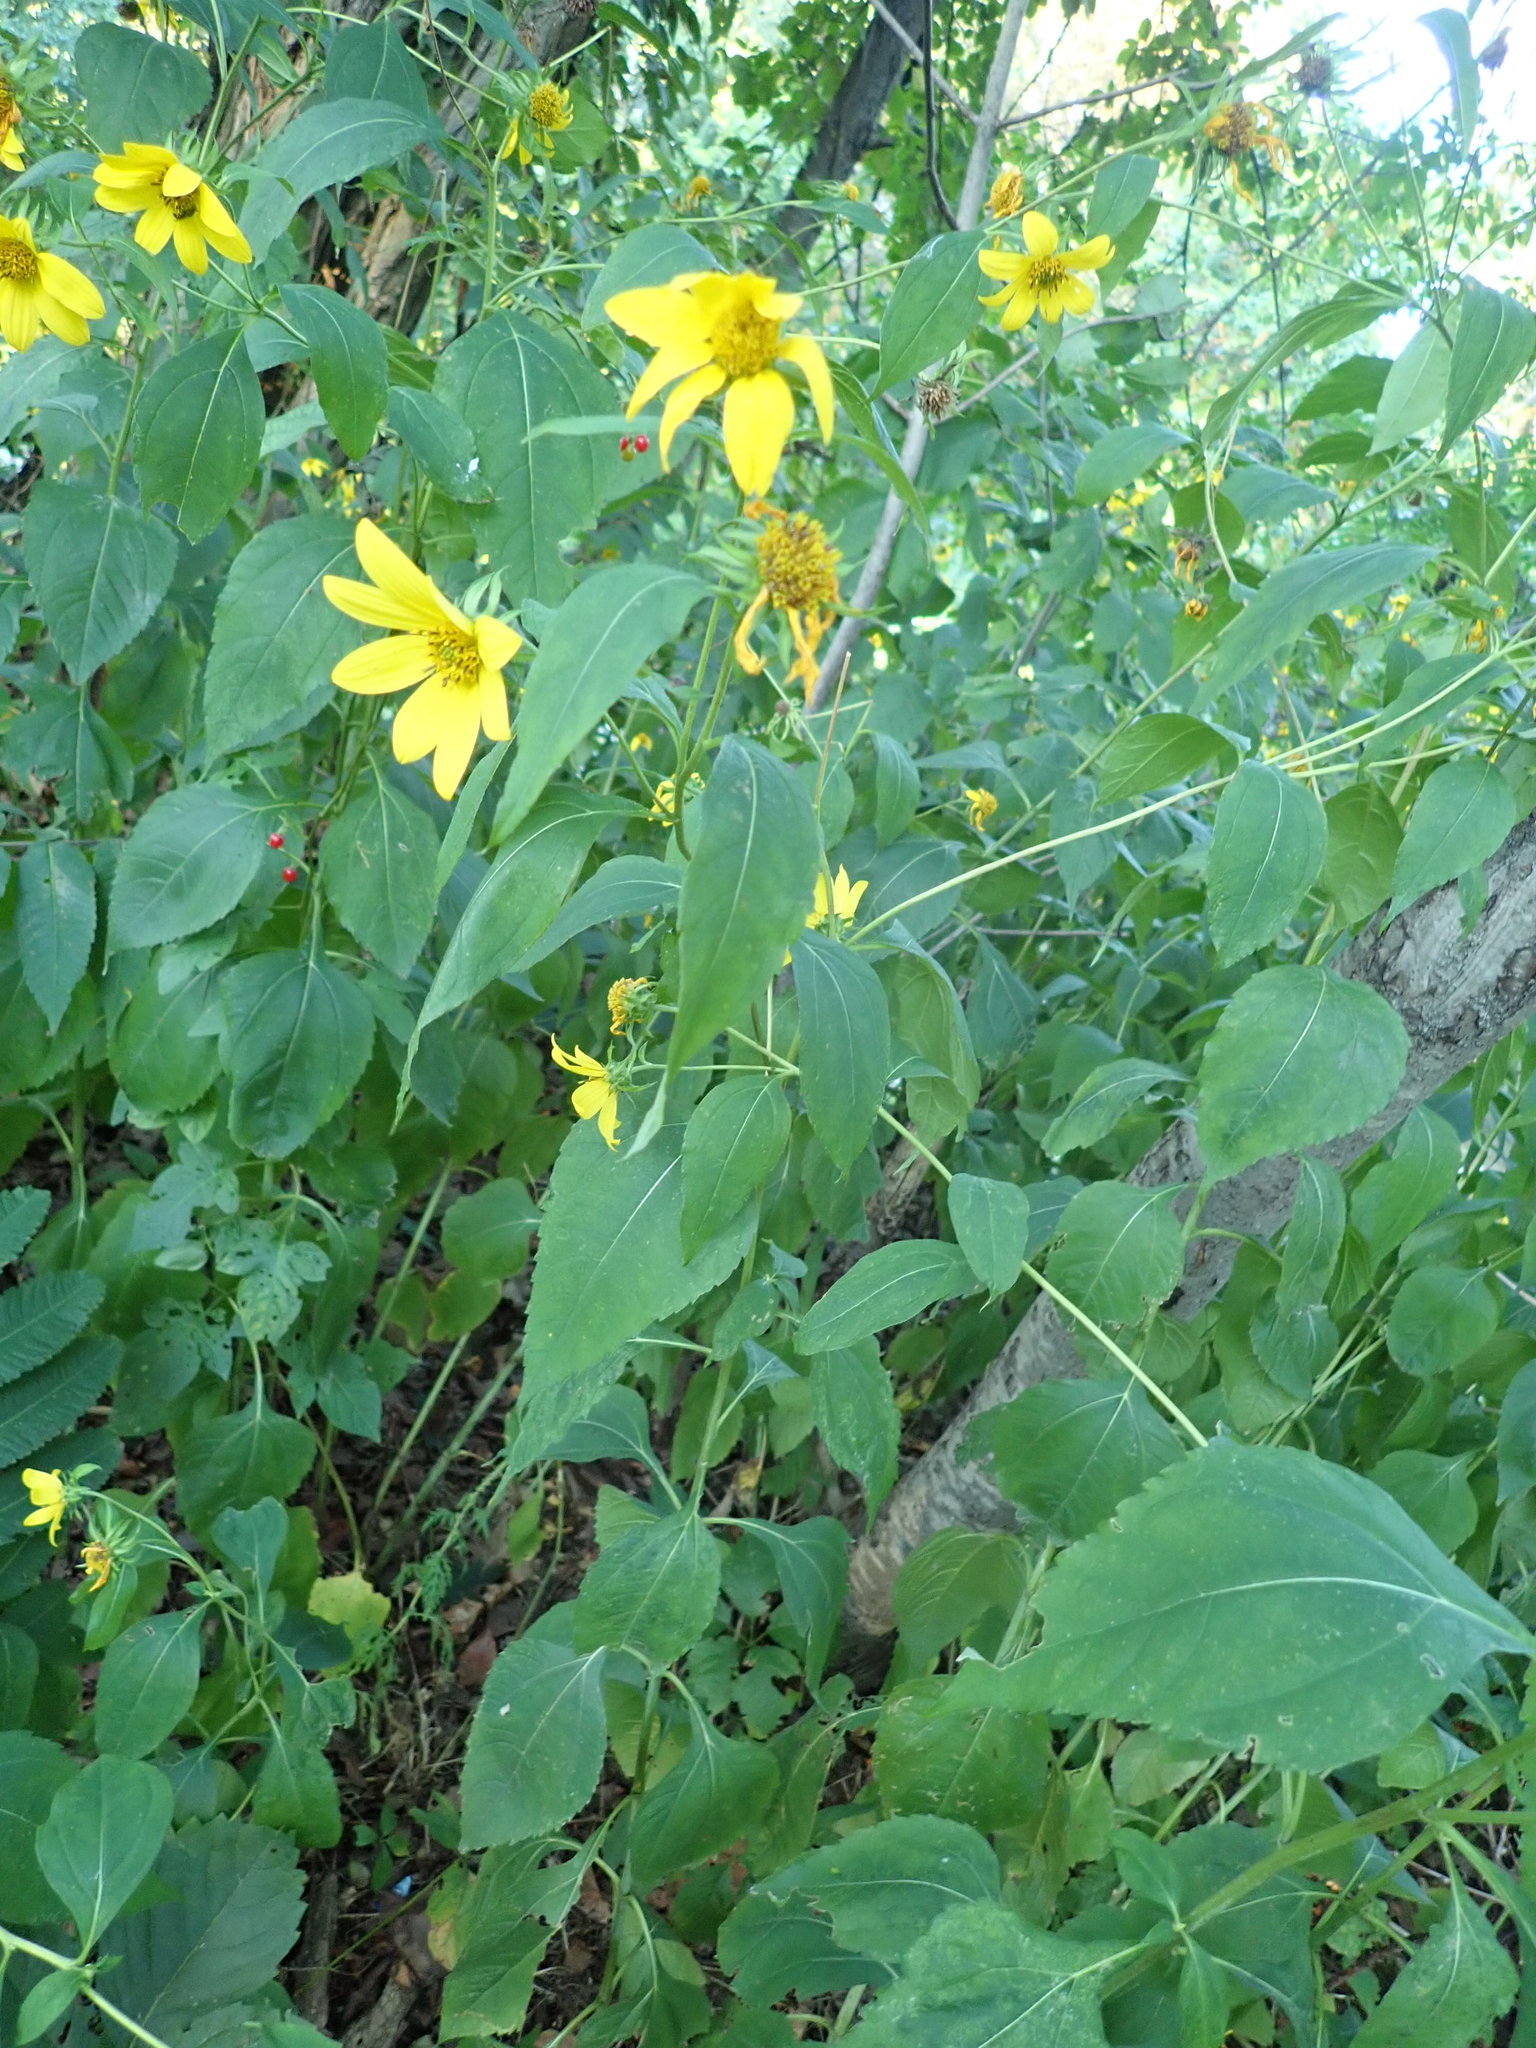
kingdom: Plantae
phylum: Tracheophyta
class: Magnoliopsida
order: Asterales
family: Asteraceae
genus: Helianthus
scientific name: Helianthus tuberosus
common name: Jerusalem artichoke
